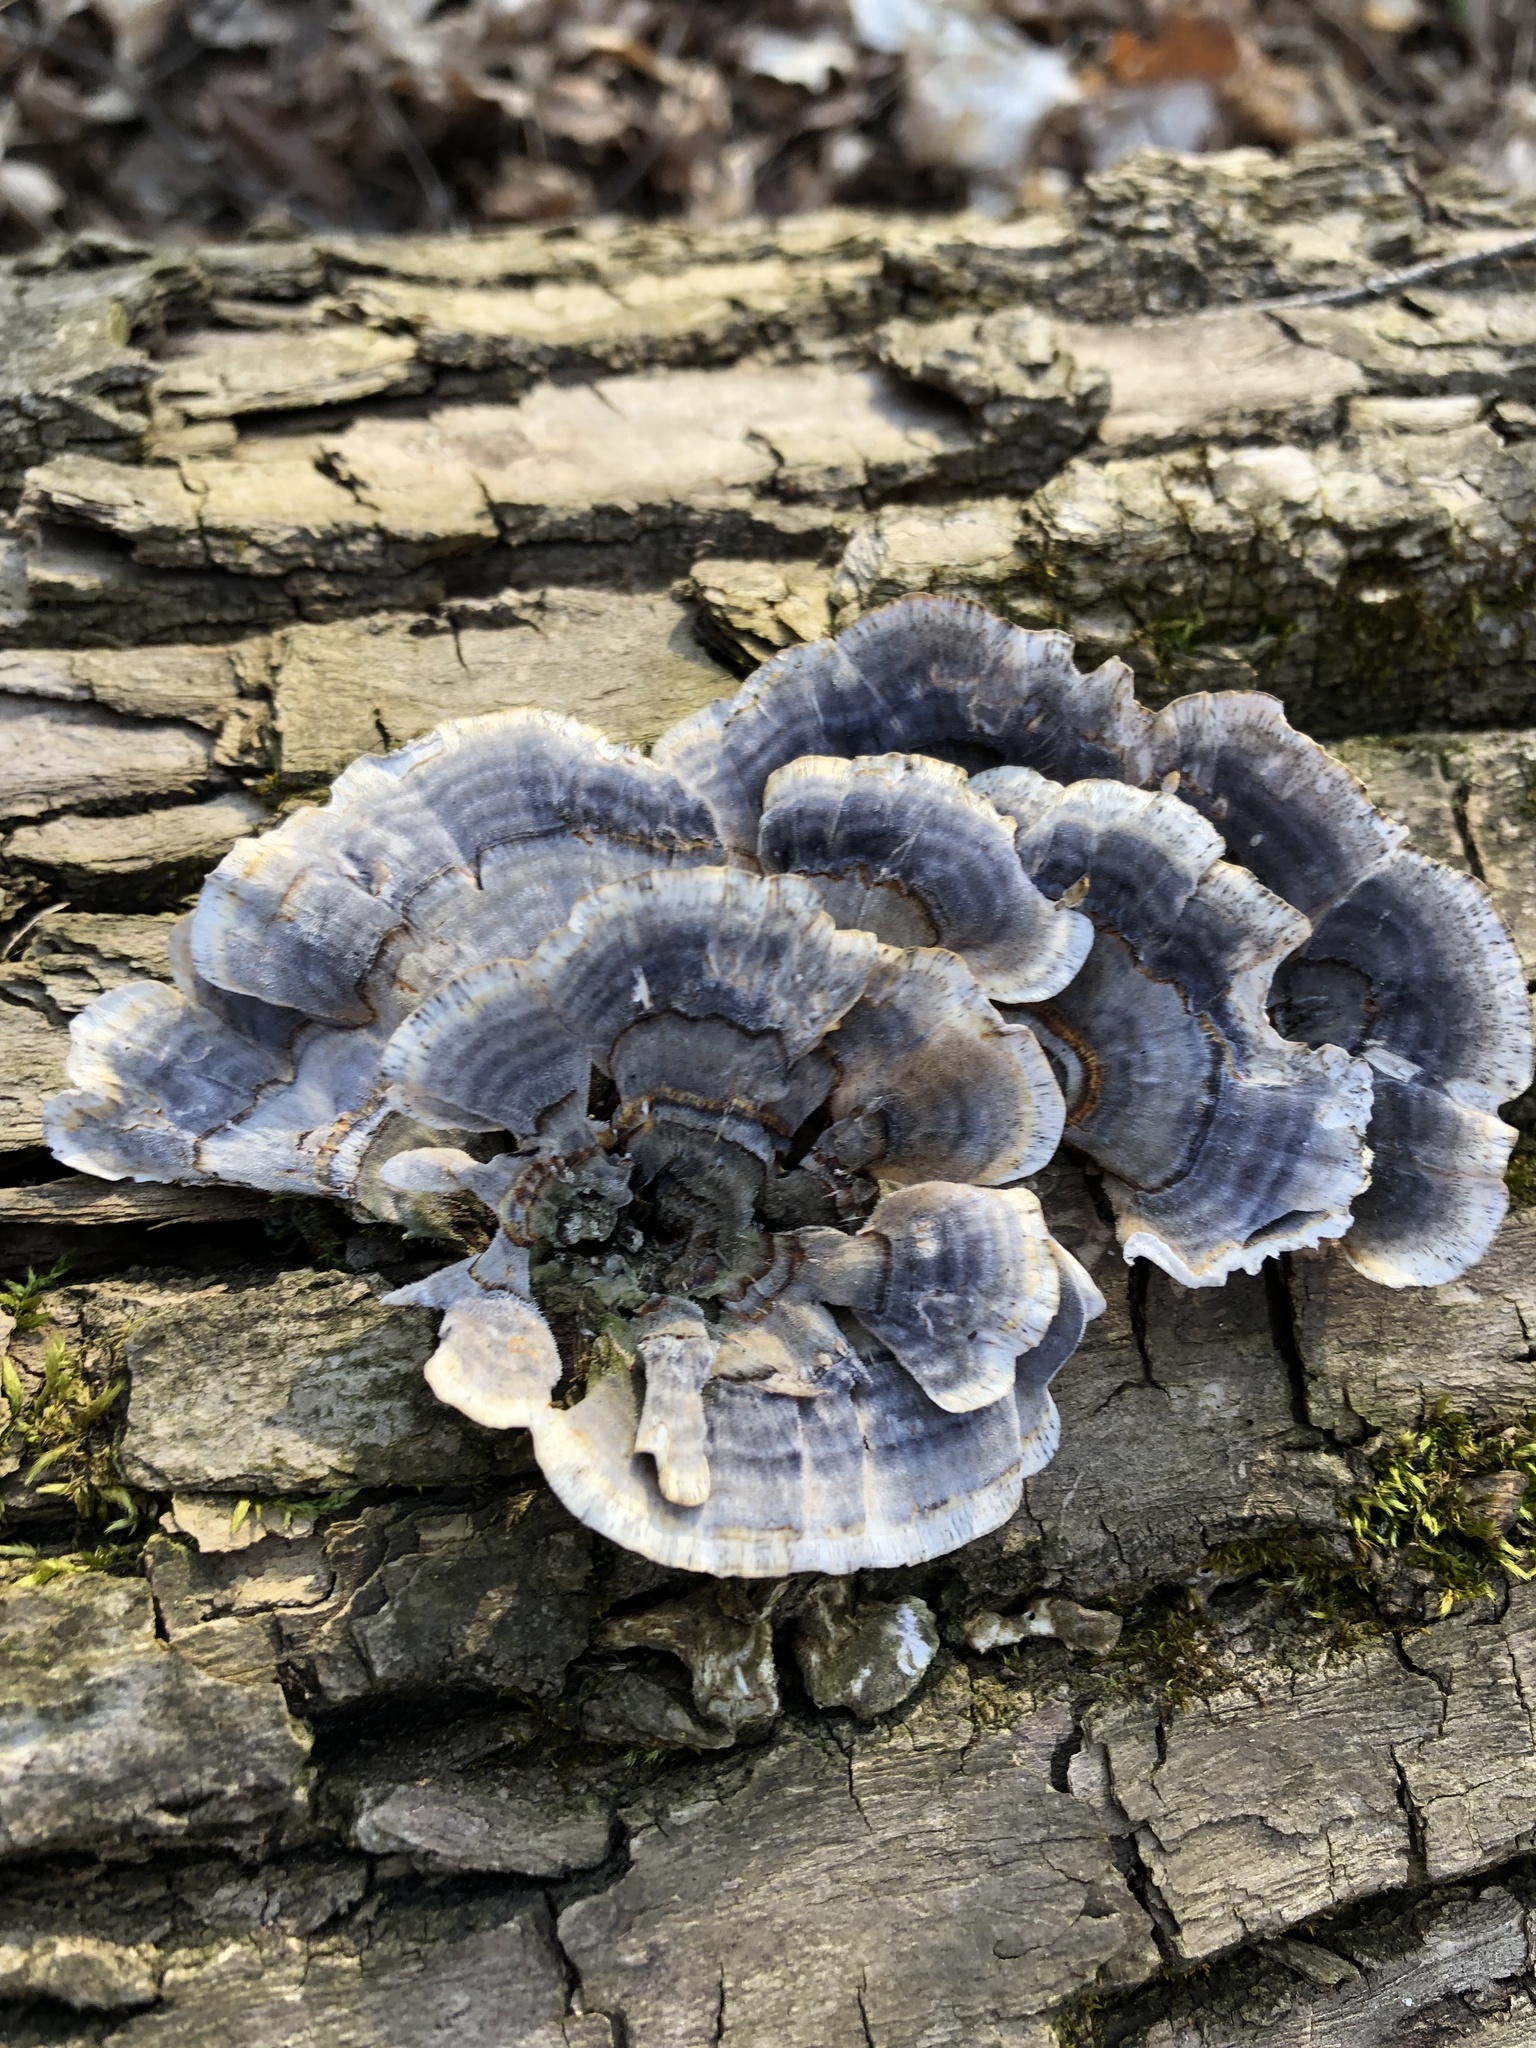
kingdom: Fungi
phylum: Basidiomycota
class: Agaricomycetes
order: Polyporales
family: Polyporaceae
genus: Trametes
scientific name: Trametes versicolor
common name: Turkeytail
